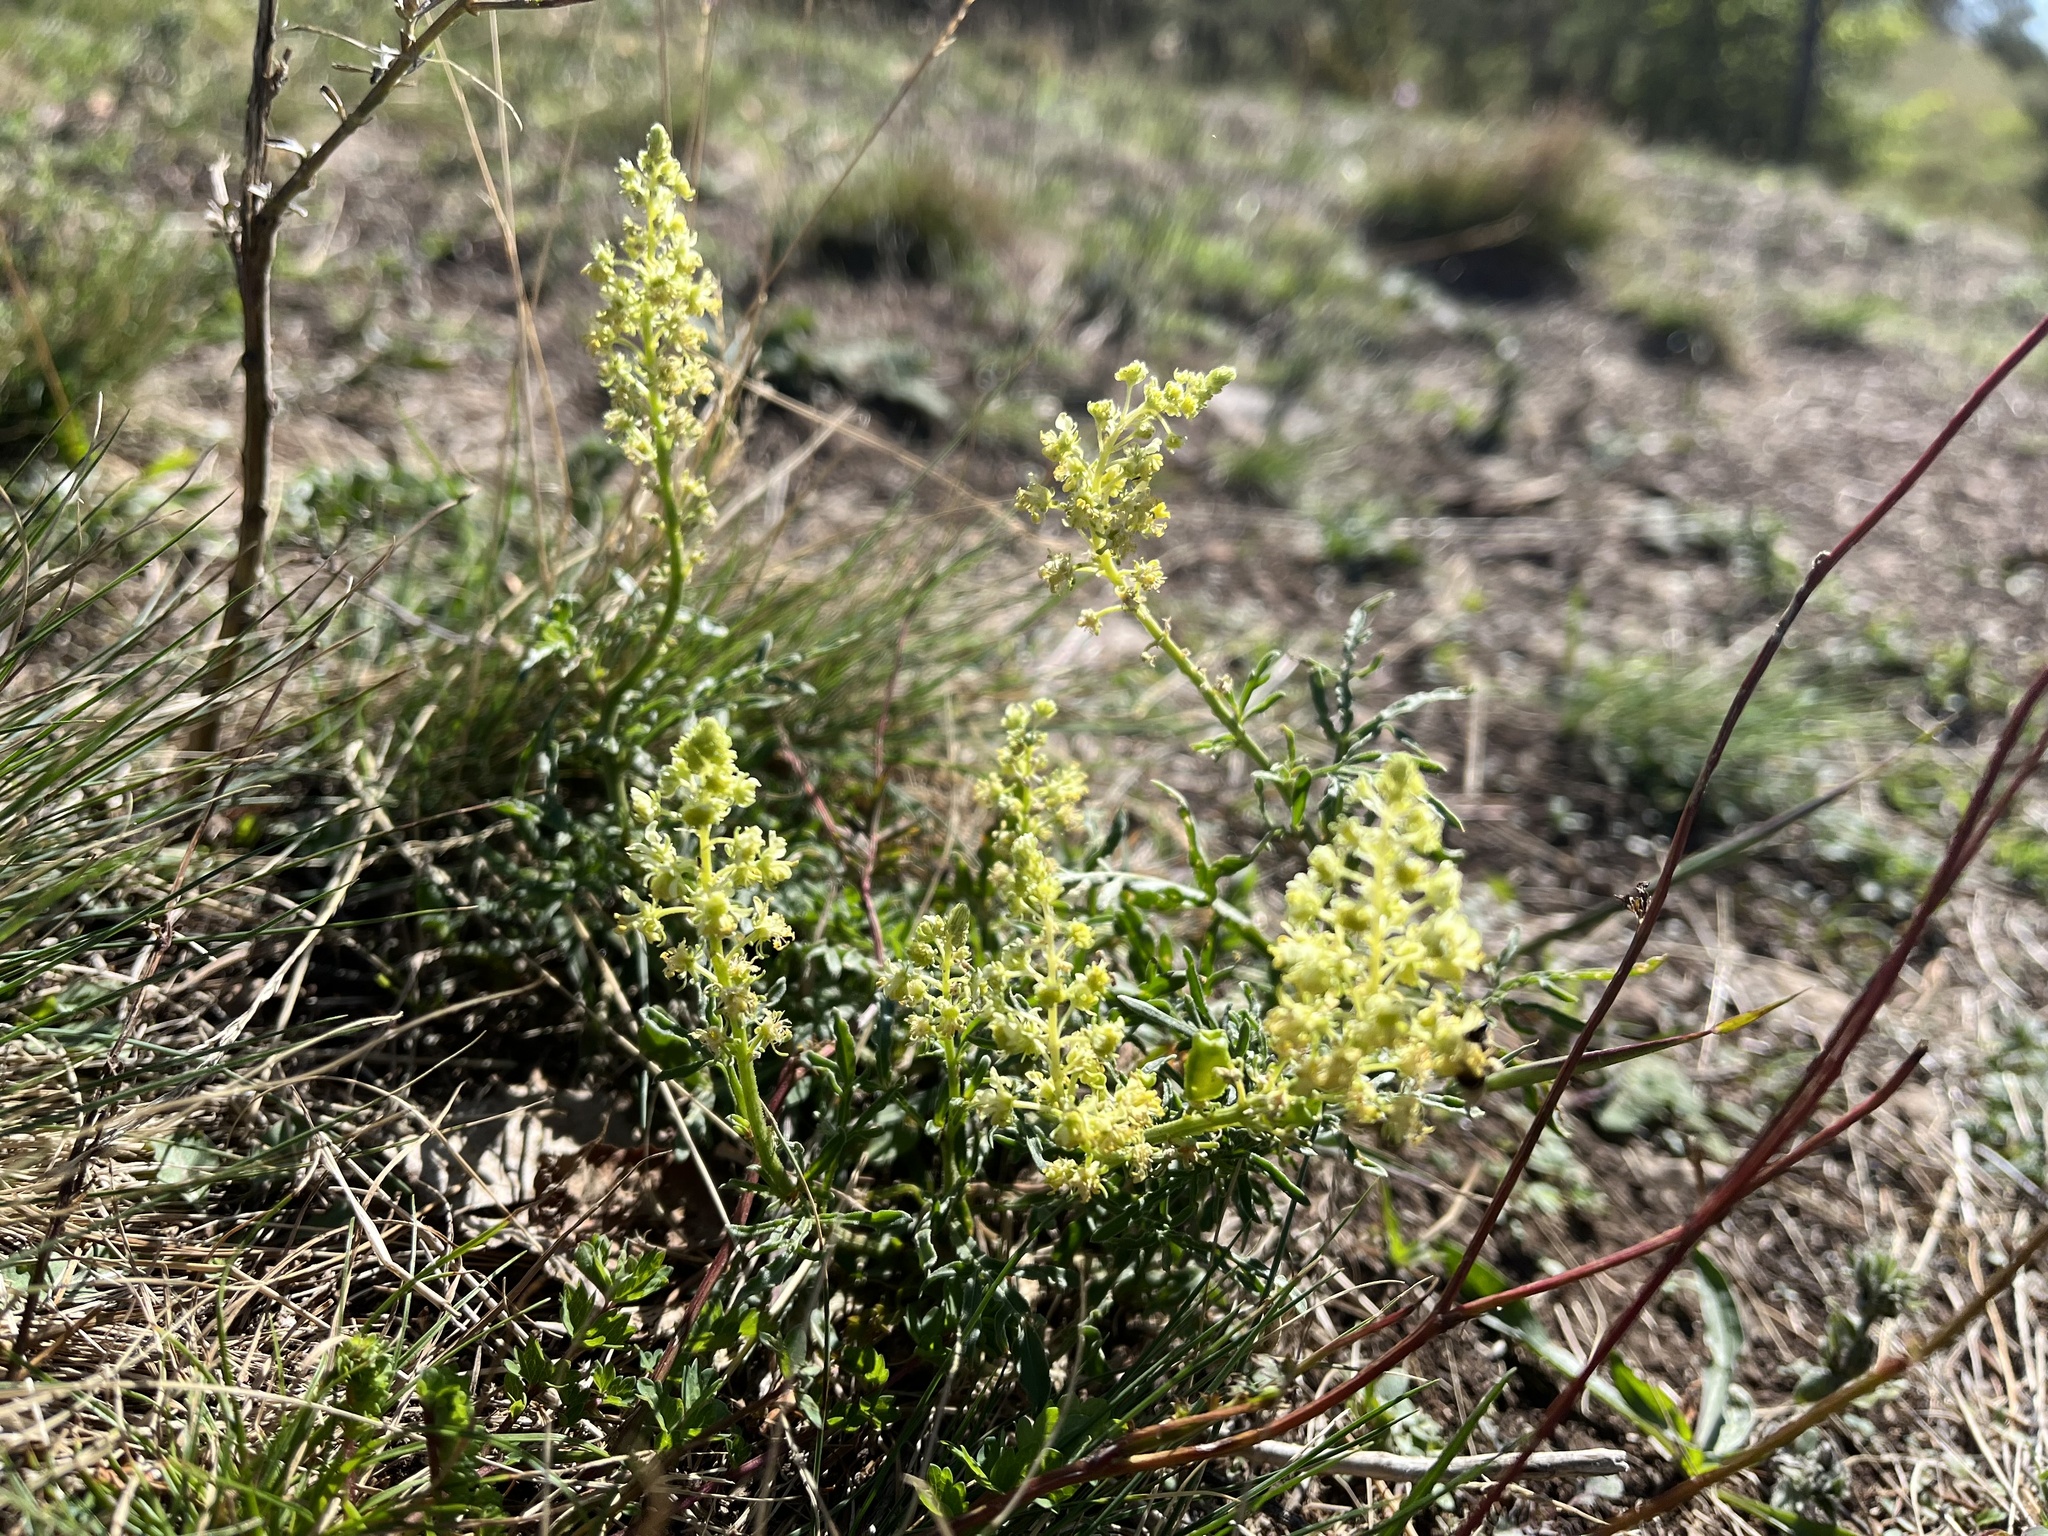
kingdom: Plantae
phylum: Tracheophyta
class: Magnoliopsida
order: Brassicales
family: Resedaceae
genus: Reseda
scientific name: Reseda lutea
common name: Wild mignonette
